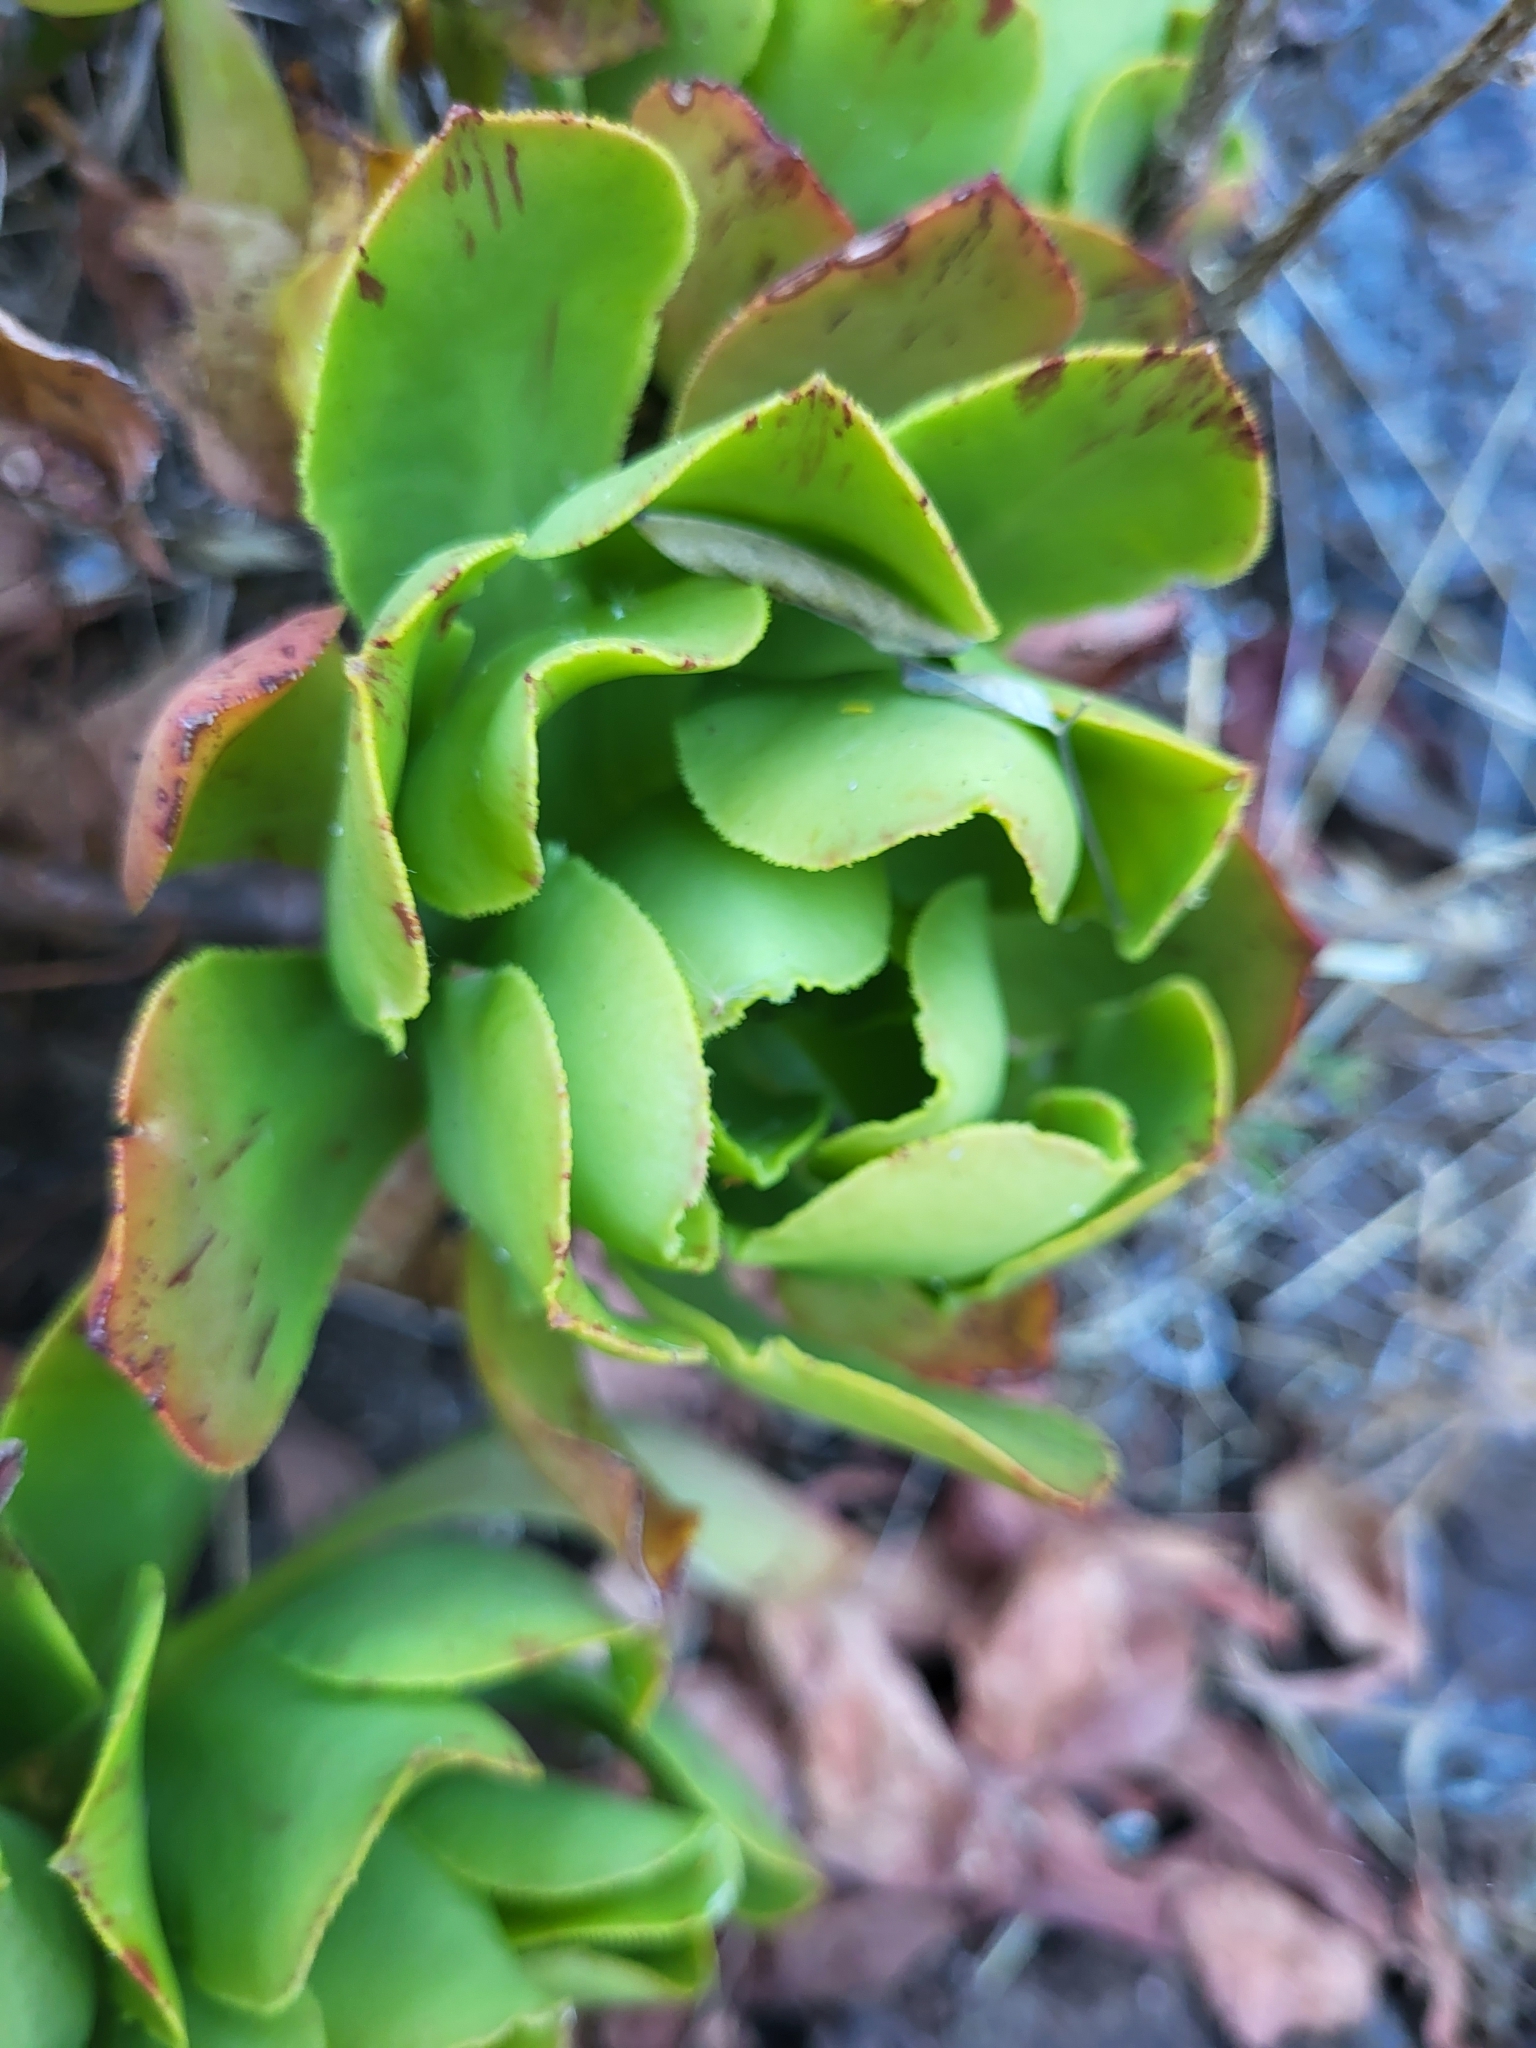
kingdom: Plantae
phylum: Tracheophyta
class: Magnoliopsida
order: Saxifragales
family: Crassulaceae
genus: Aeonium
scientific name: Aeonium glutinosum
